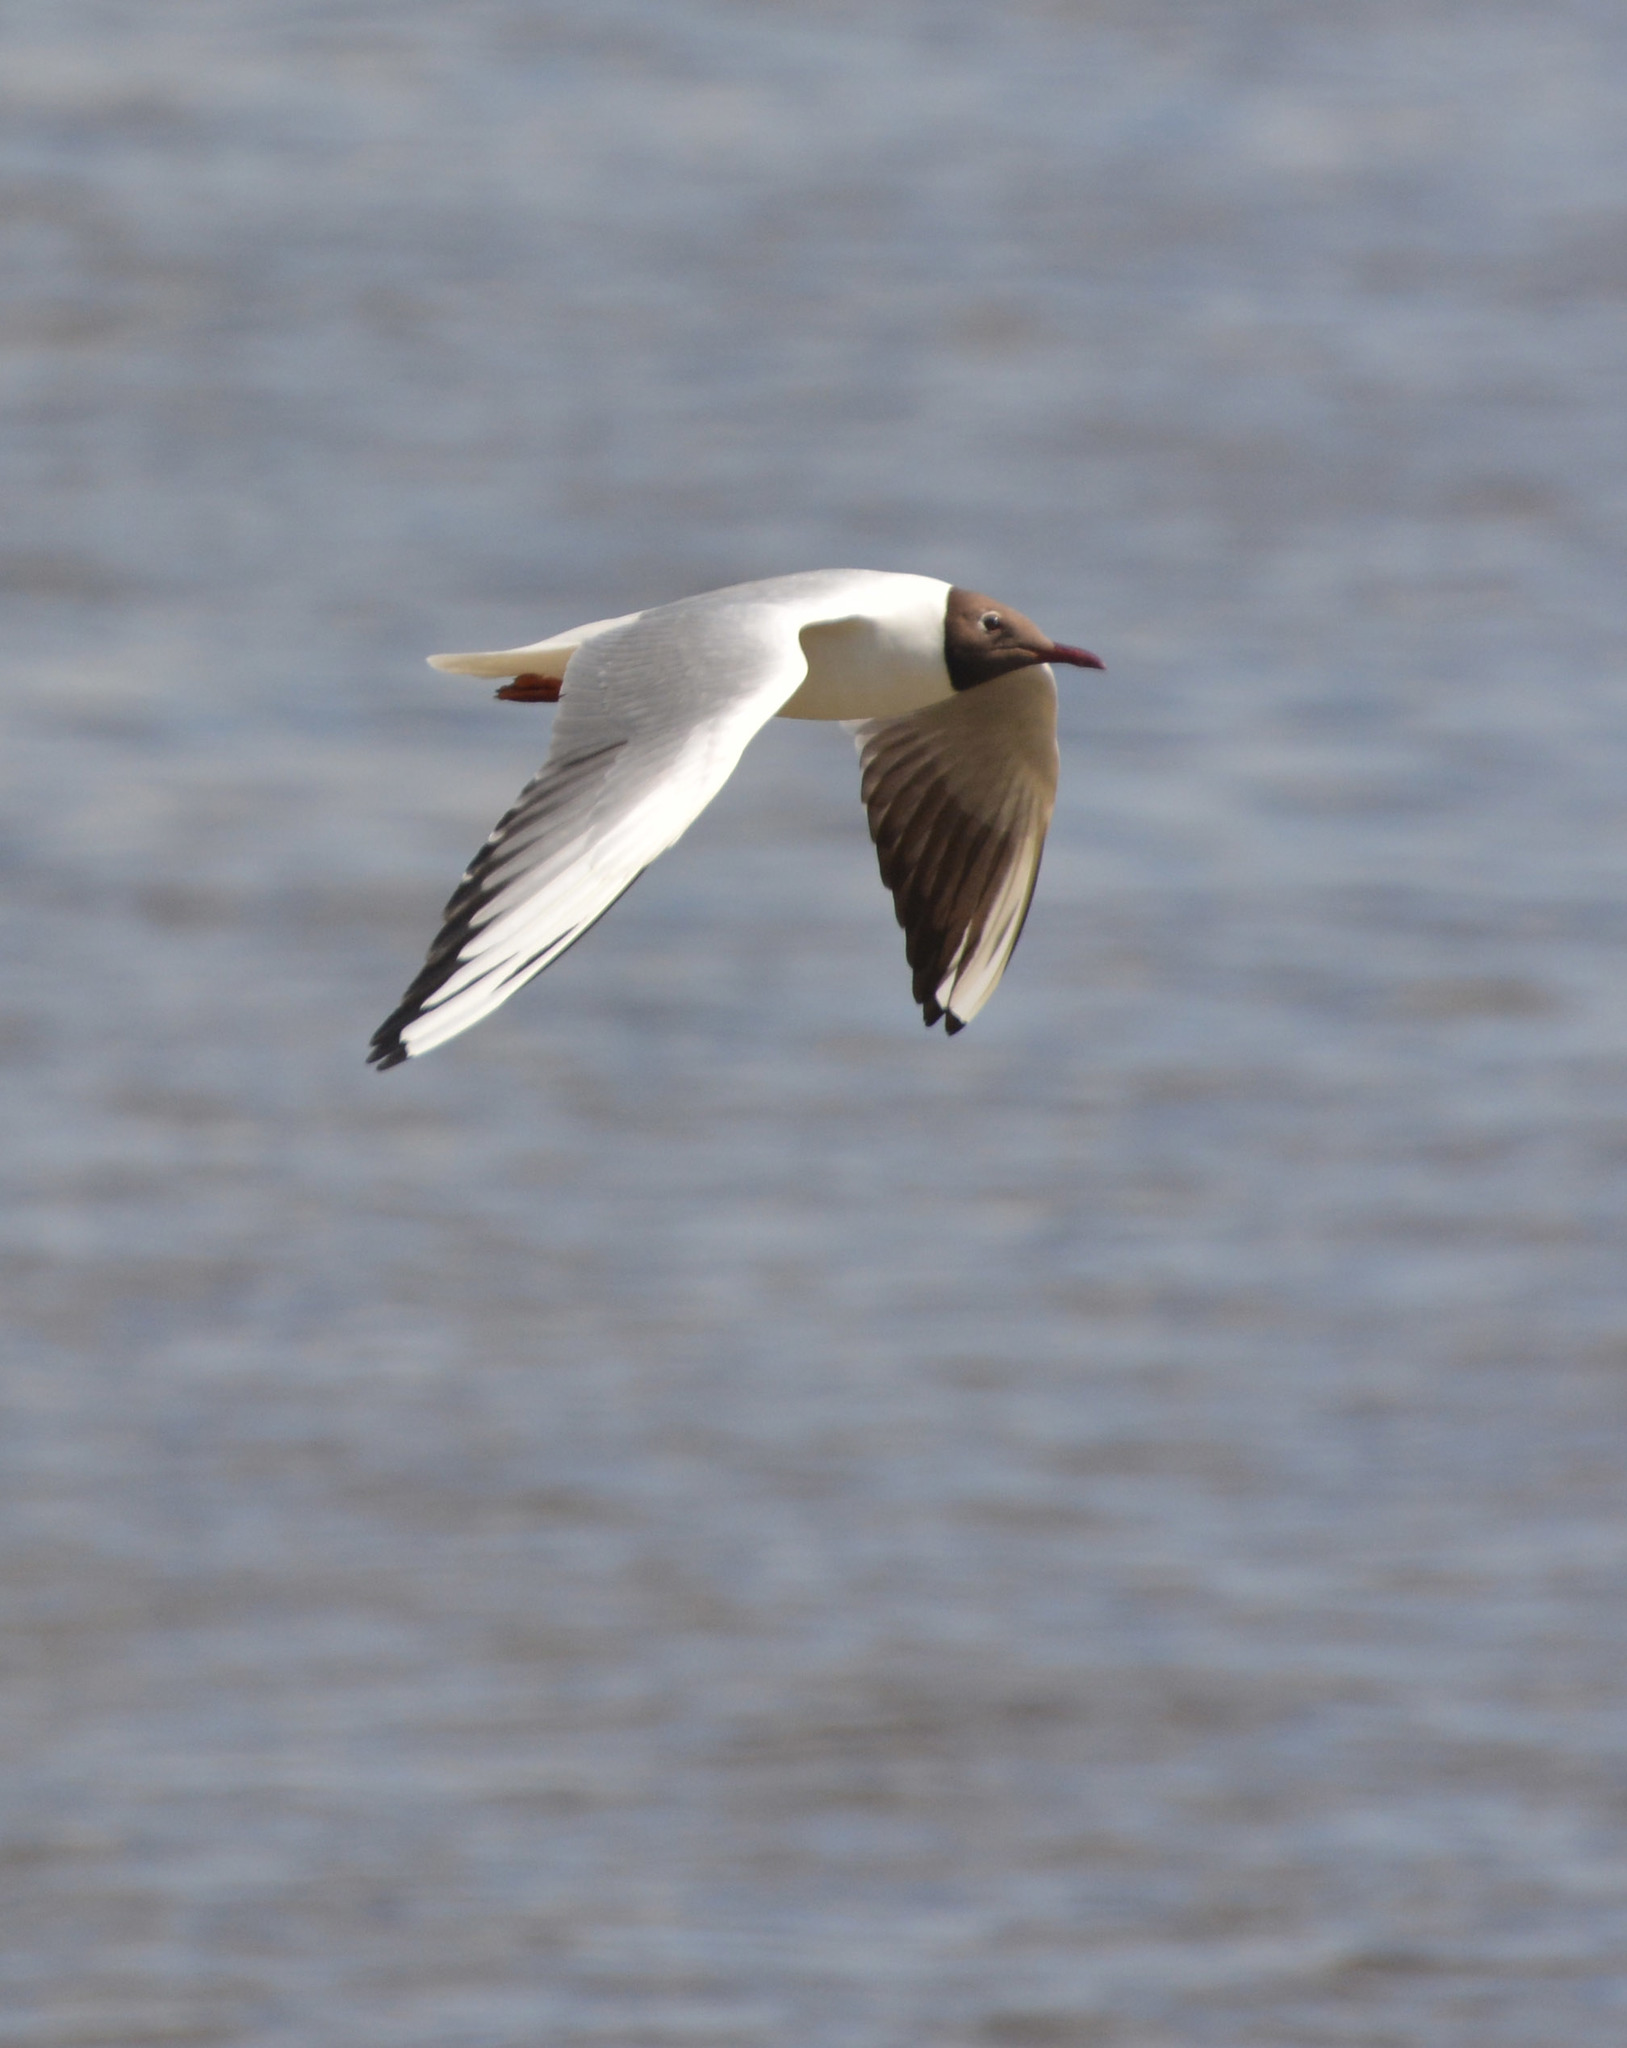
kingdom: Animalia
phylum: Chordata
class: Aves
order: Charadriiformes
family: Laridae
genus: Chroicocephalus
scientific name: Chroicocephalus ridibundus
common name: Black-headed gull
